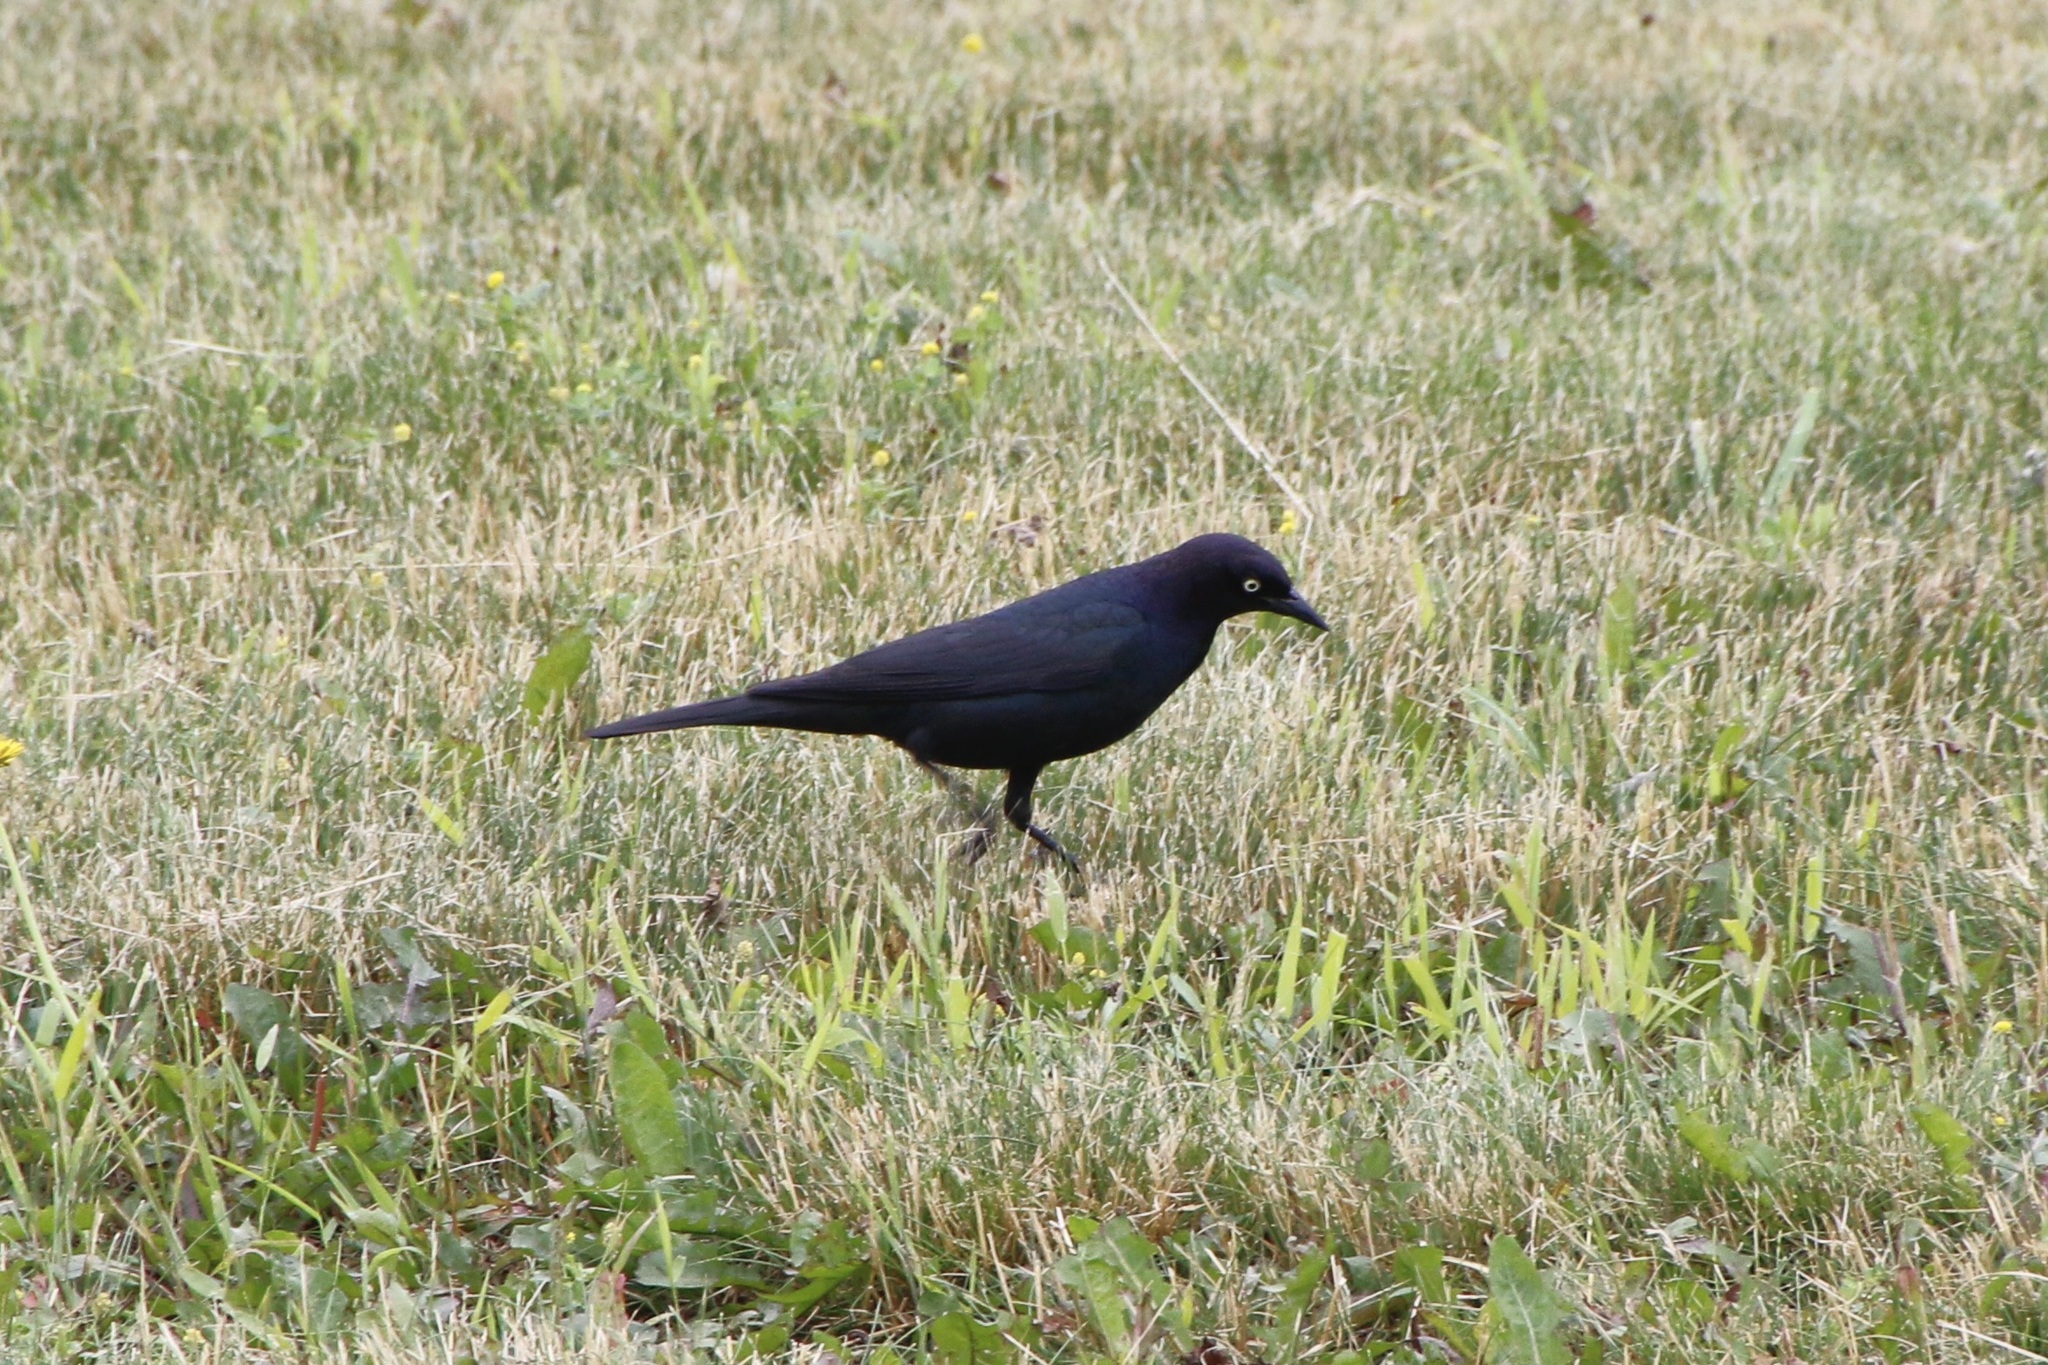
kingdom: Animalia
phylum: Chordata
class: Aves
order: Passeriformes
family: Icteridae
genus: Euphagus
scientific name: Euphagus cyanocephalus
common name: Brewer's blackbird
